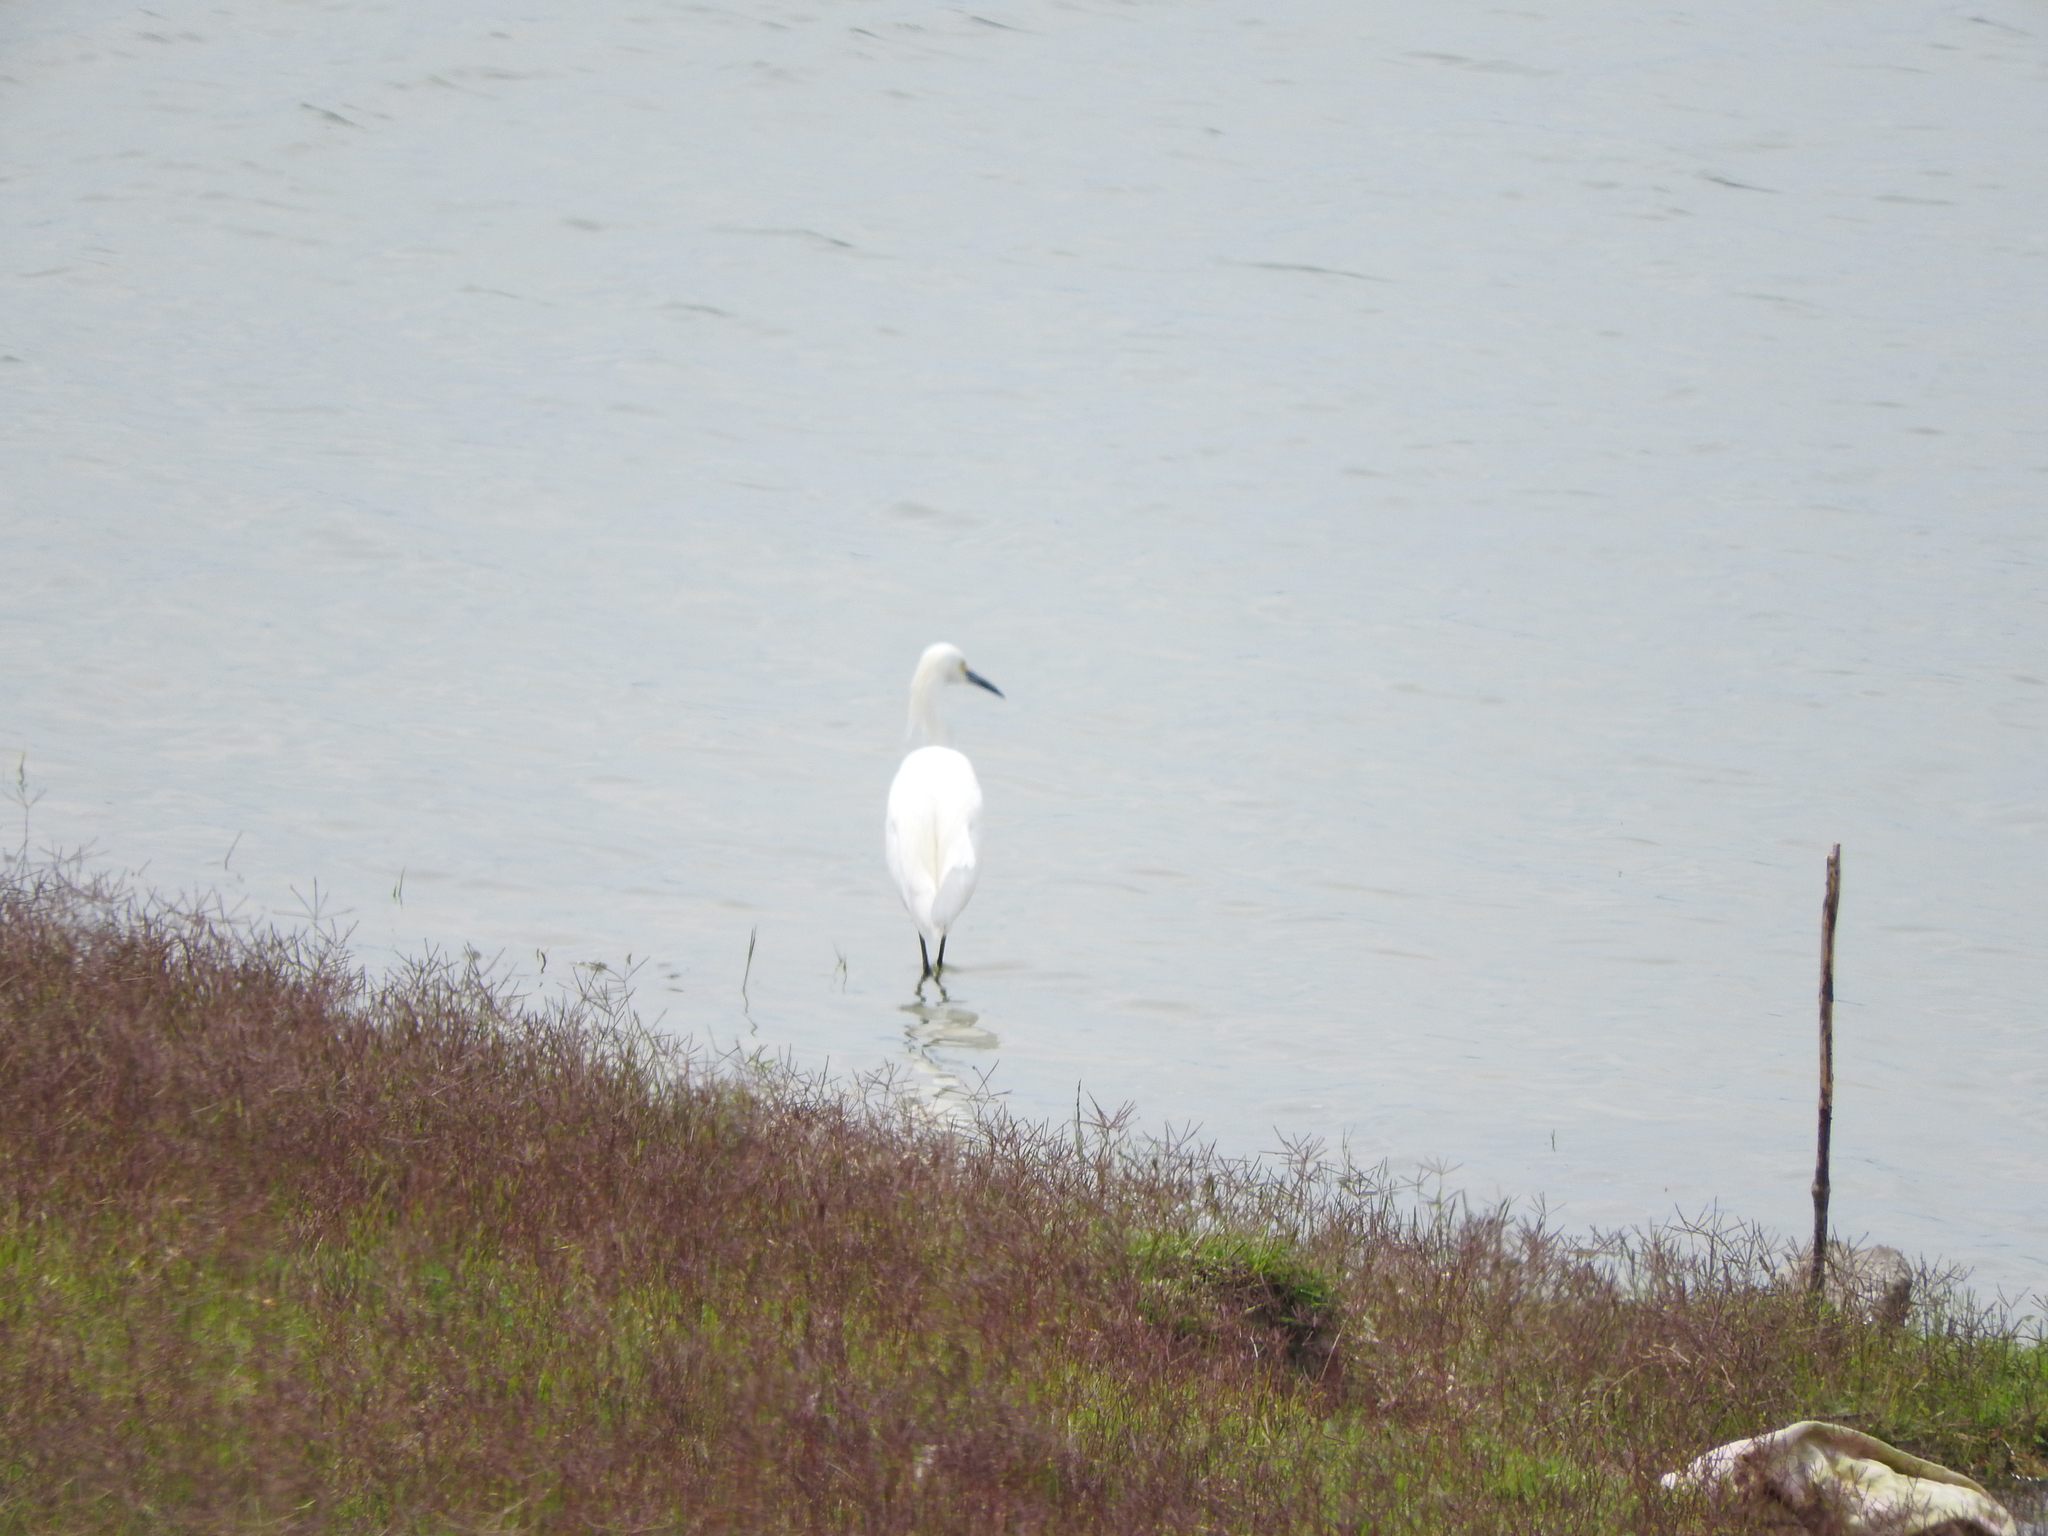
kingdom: Animalia
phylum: Chordata
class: Aves
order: Pelecaniformes
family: Ardeidae
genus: Egretta
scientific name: Egretta thula
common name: Snowy egret
